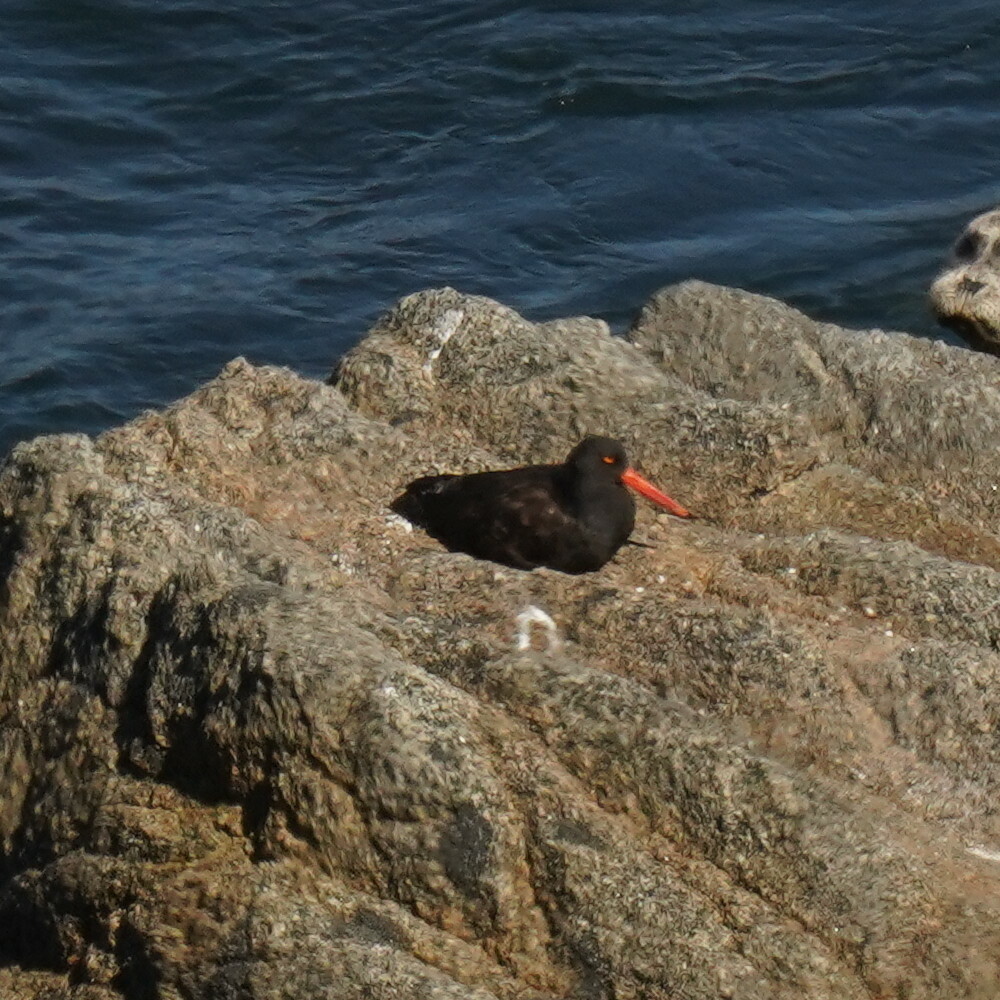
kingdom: Animalia
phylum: Chordata
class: Aves
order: Charadriiformes
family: Haematopodidae
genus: Haematopus
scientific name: Haematopus bachmani
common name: Black oystercatcher
